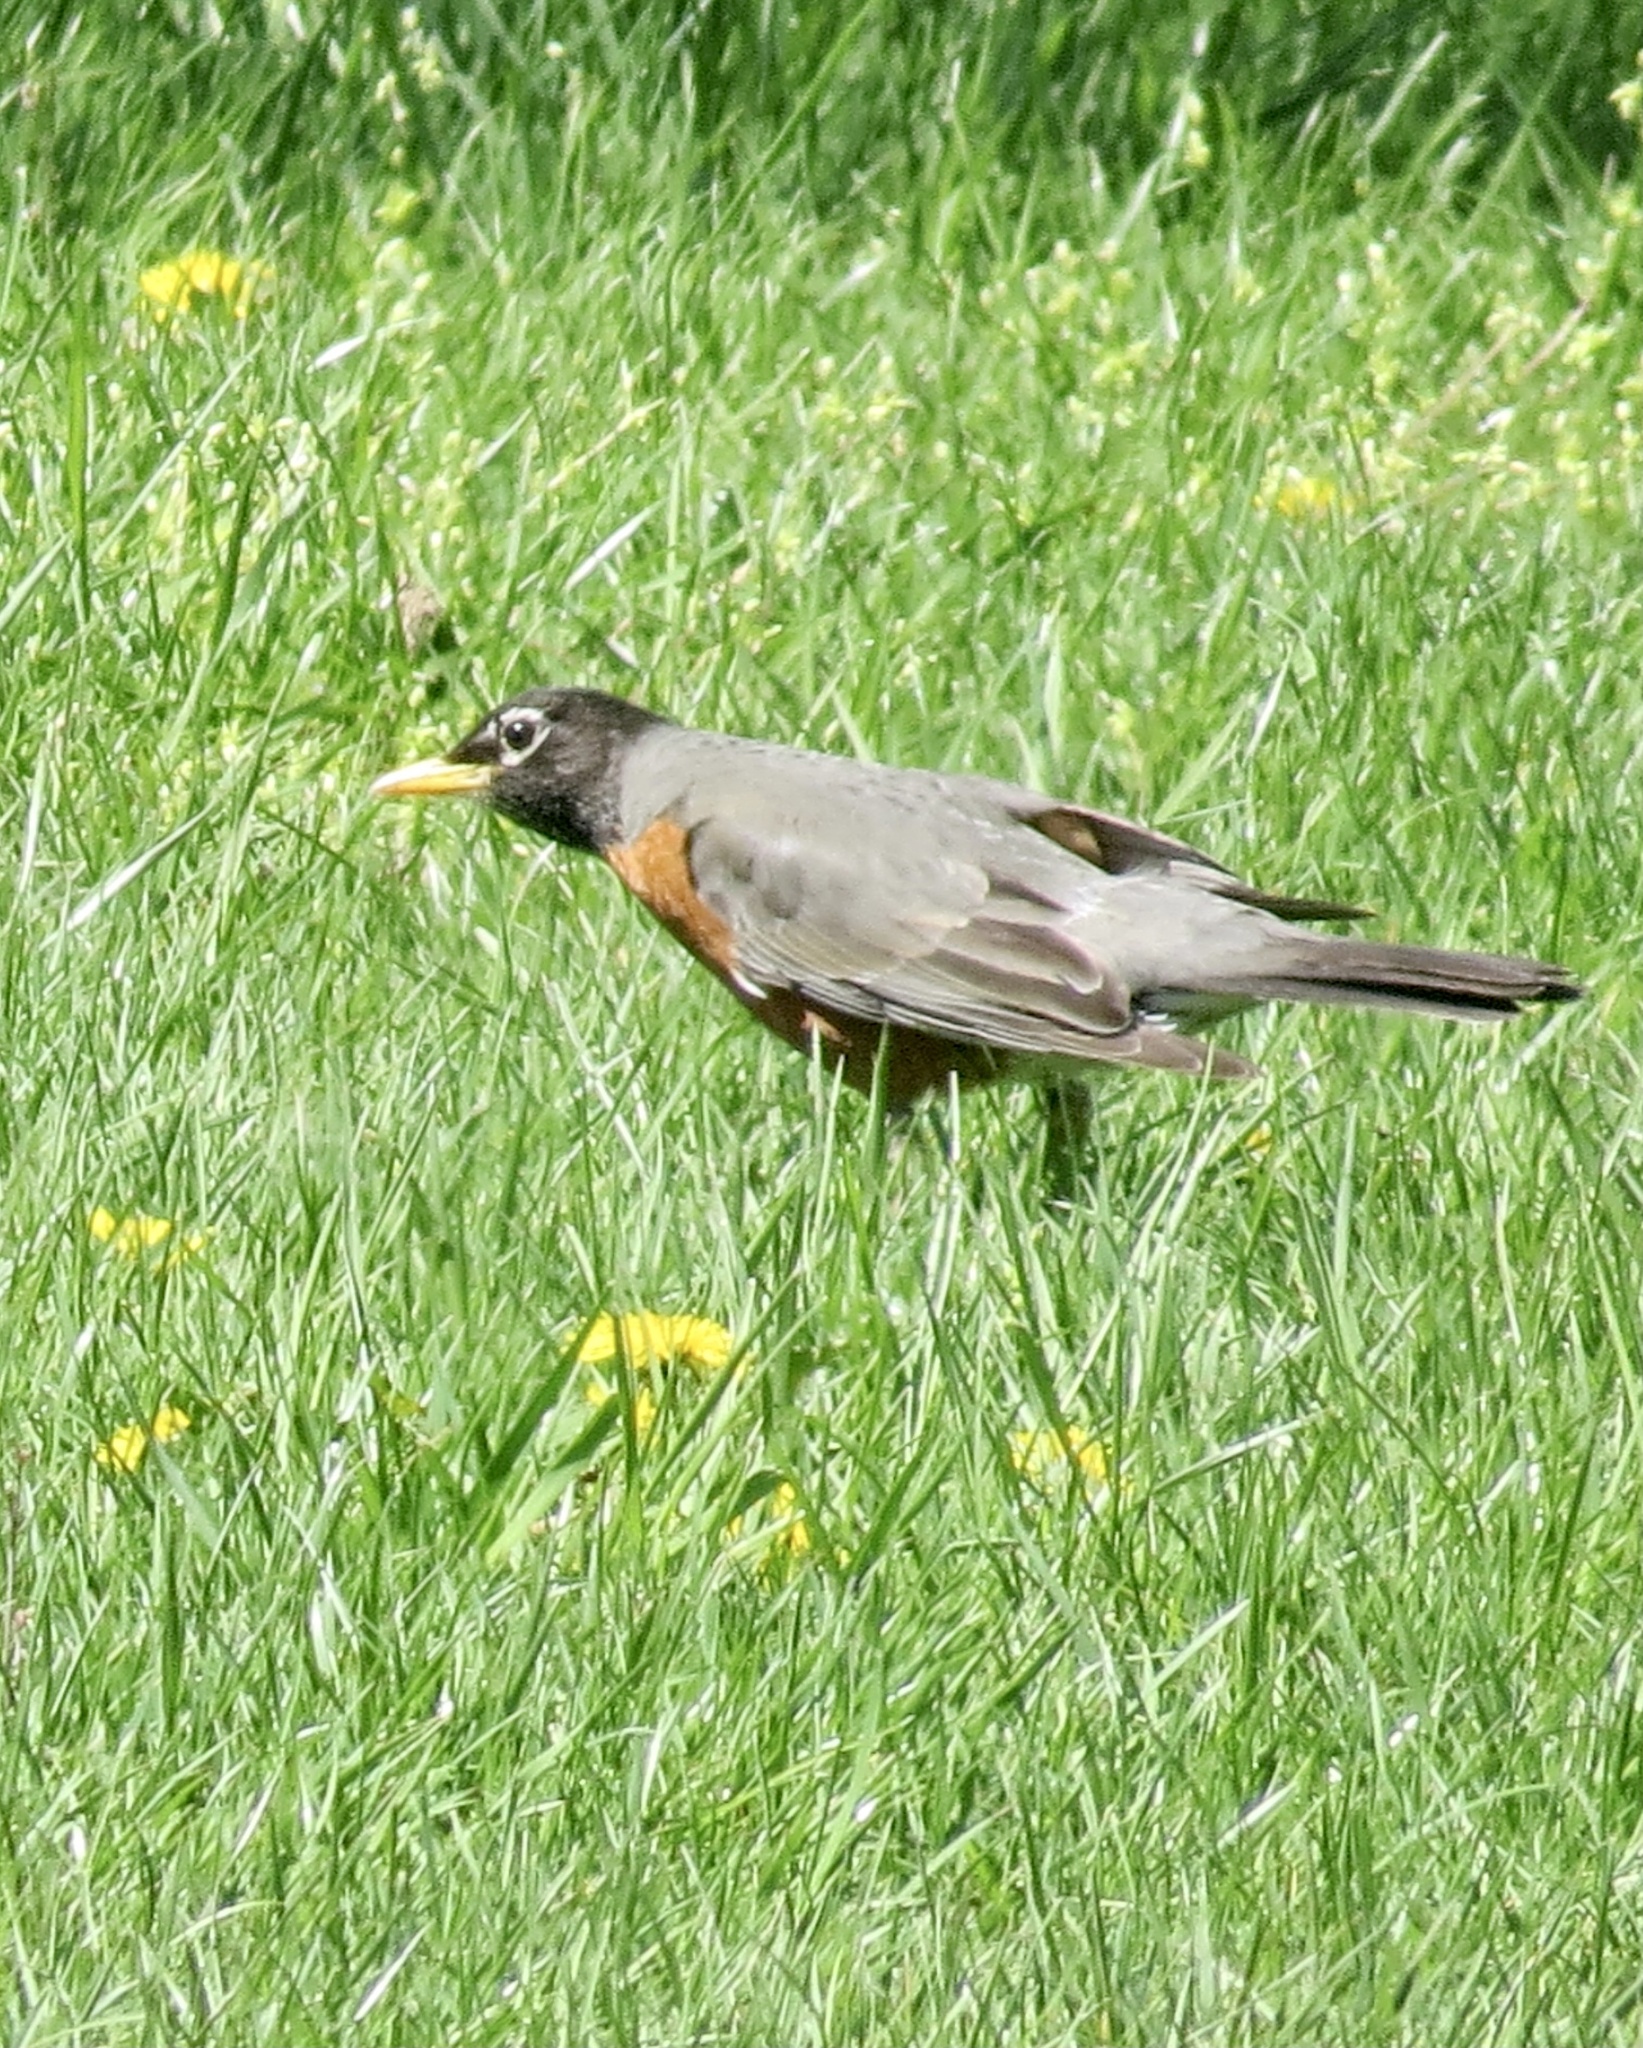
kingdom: Animalia
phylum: Chordata
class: Aves
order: Passeriformes
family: Turdidae
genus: Turdus
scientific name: Turdus migratorius
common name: American robin
